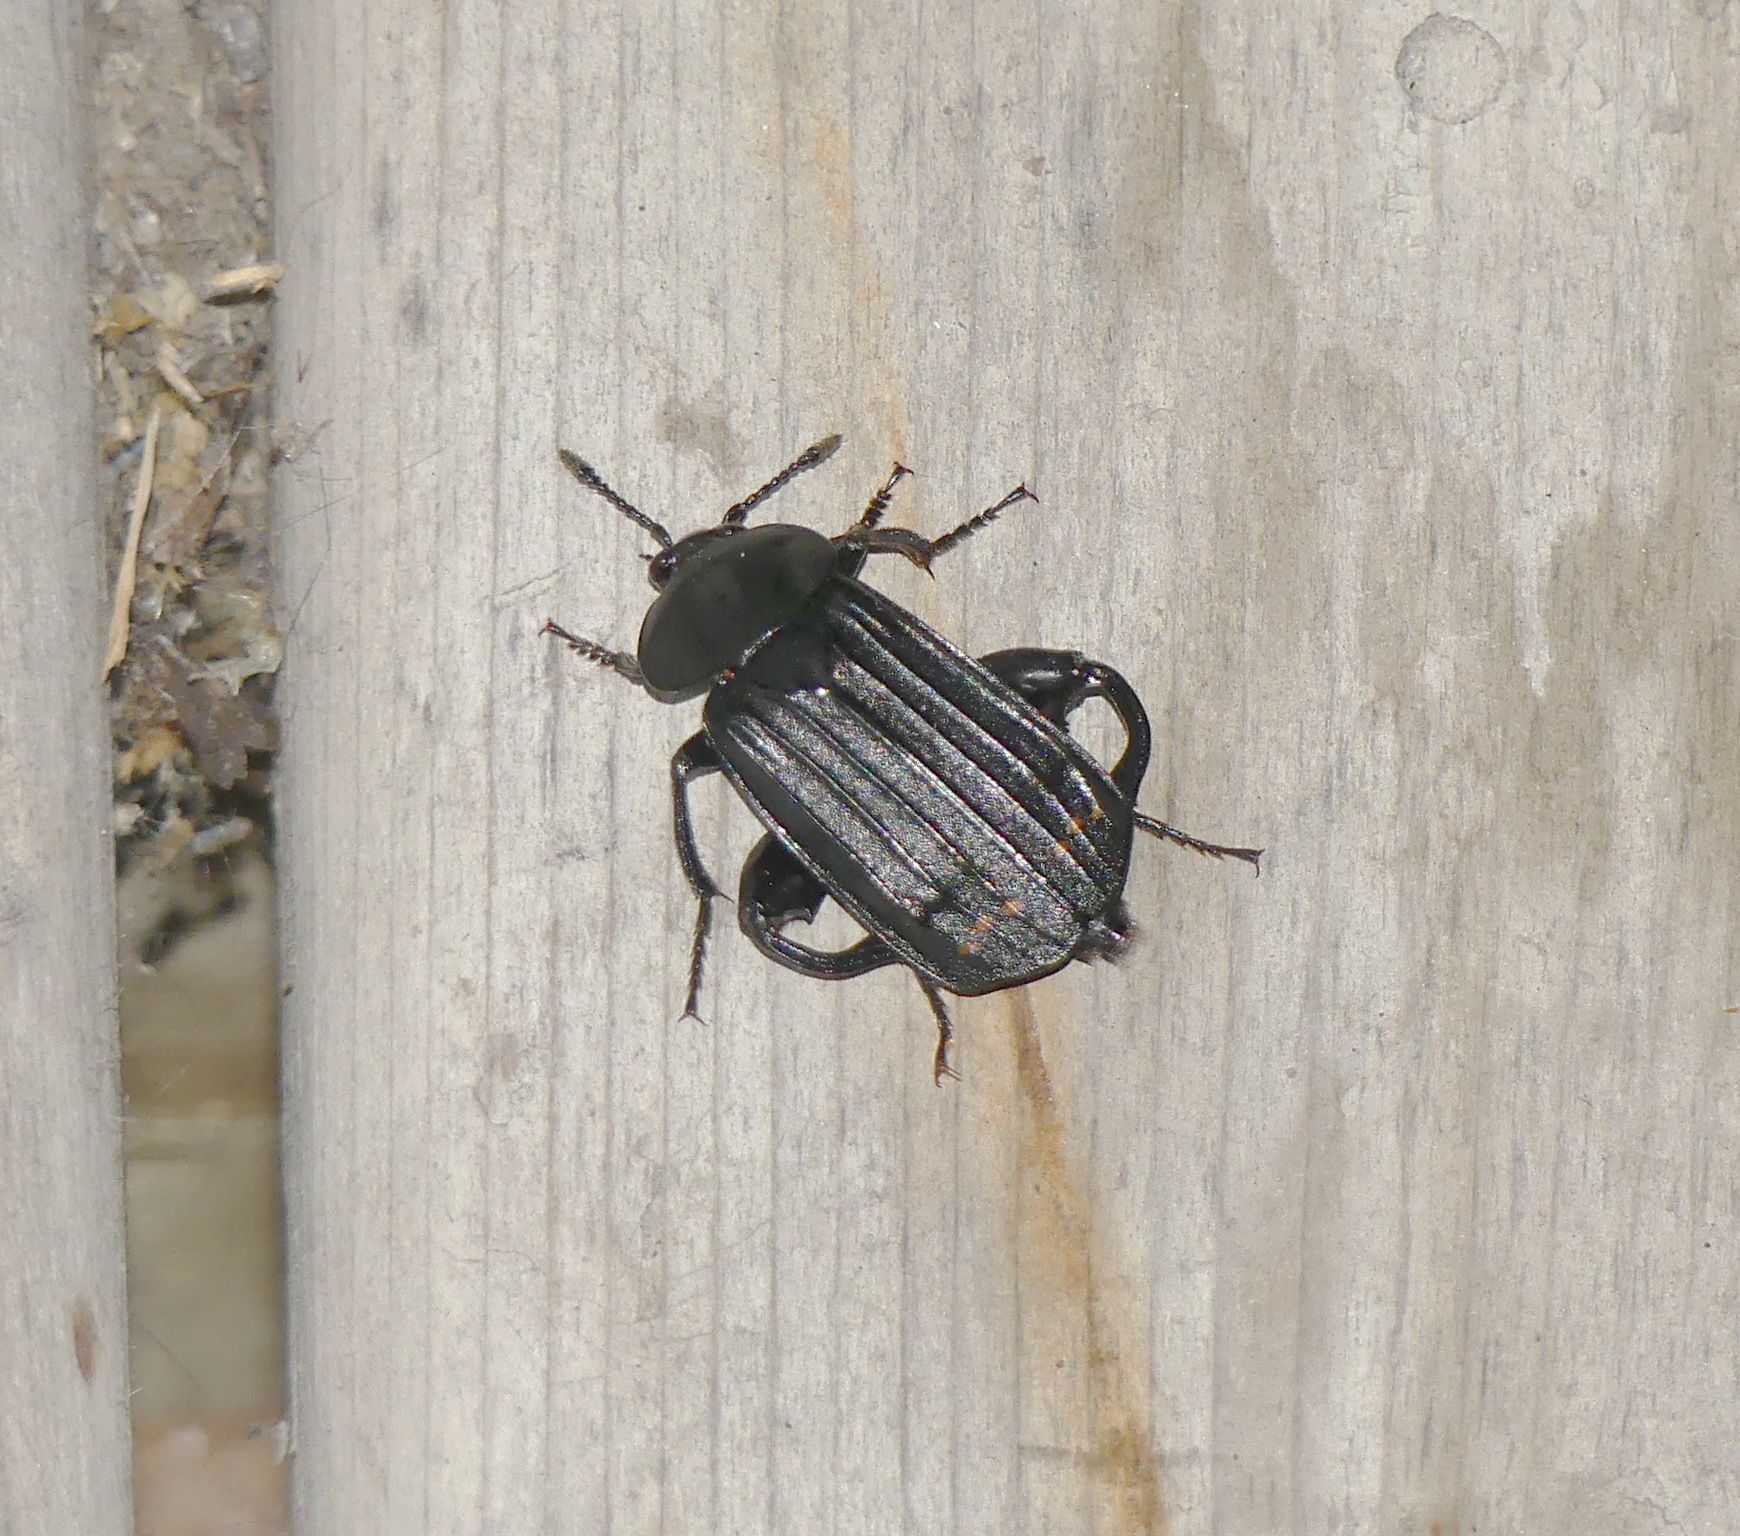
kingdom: Animalia
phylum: Arthropoda
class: Insecta
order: Coleoptera
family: Staphylinidae
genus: Necrodes
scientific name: Necrodes surinamensis
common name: Red-lined carrion beetle
